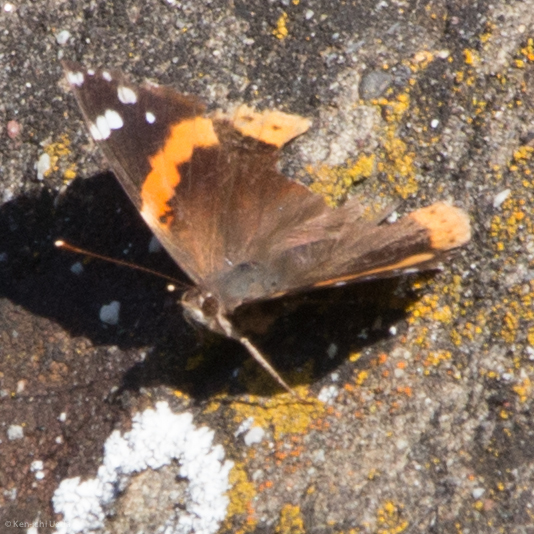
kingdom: Animalia
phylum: Arthropoda
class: Insecta
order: Lepidoptera
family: Nymphalidae
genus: Vanessa
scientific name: Vanessa atalanta
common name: Red admiral
